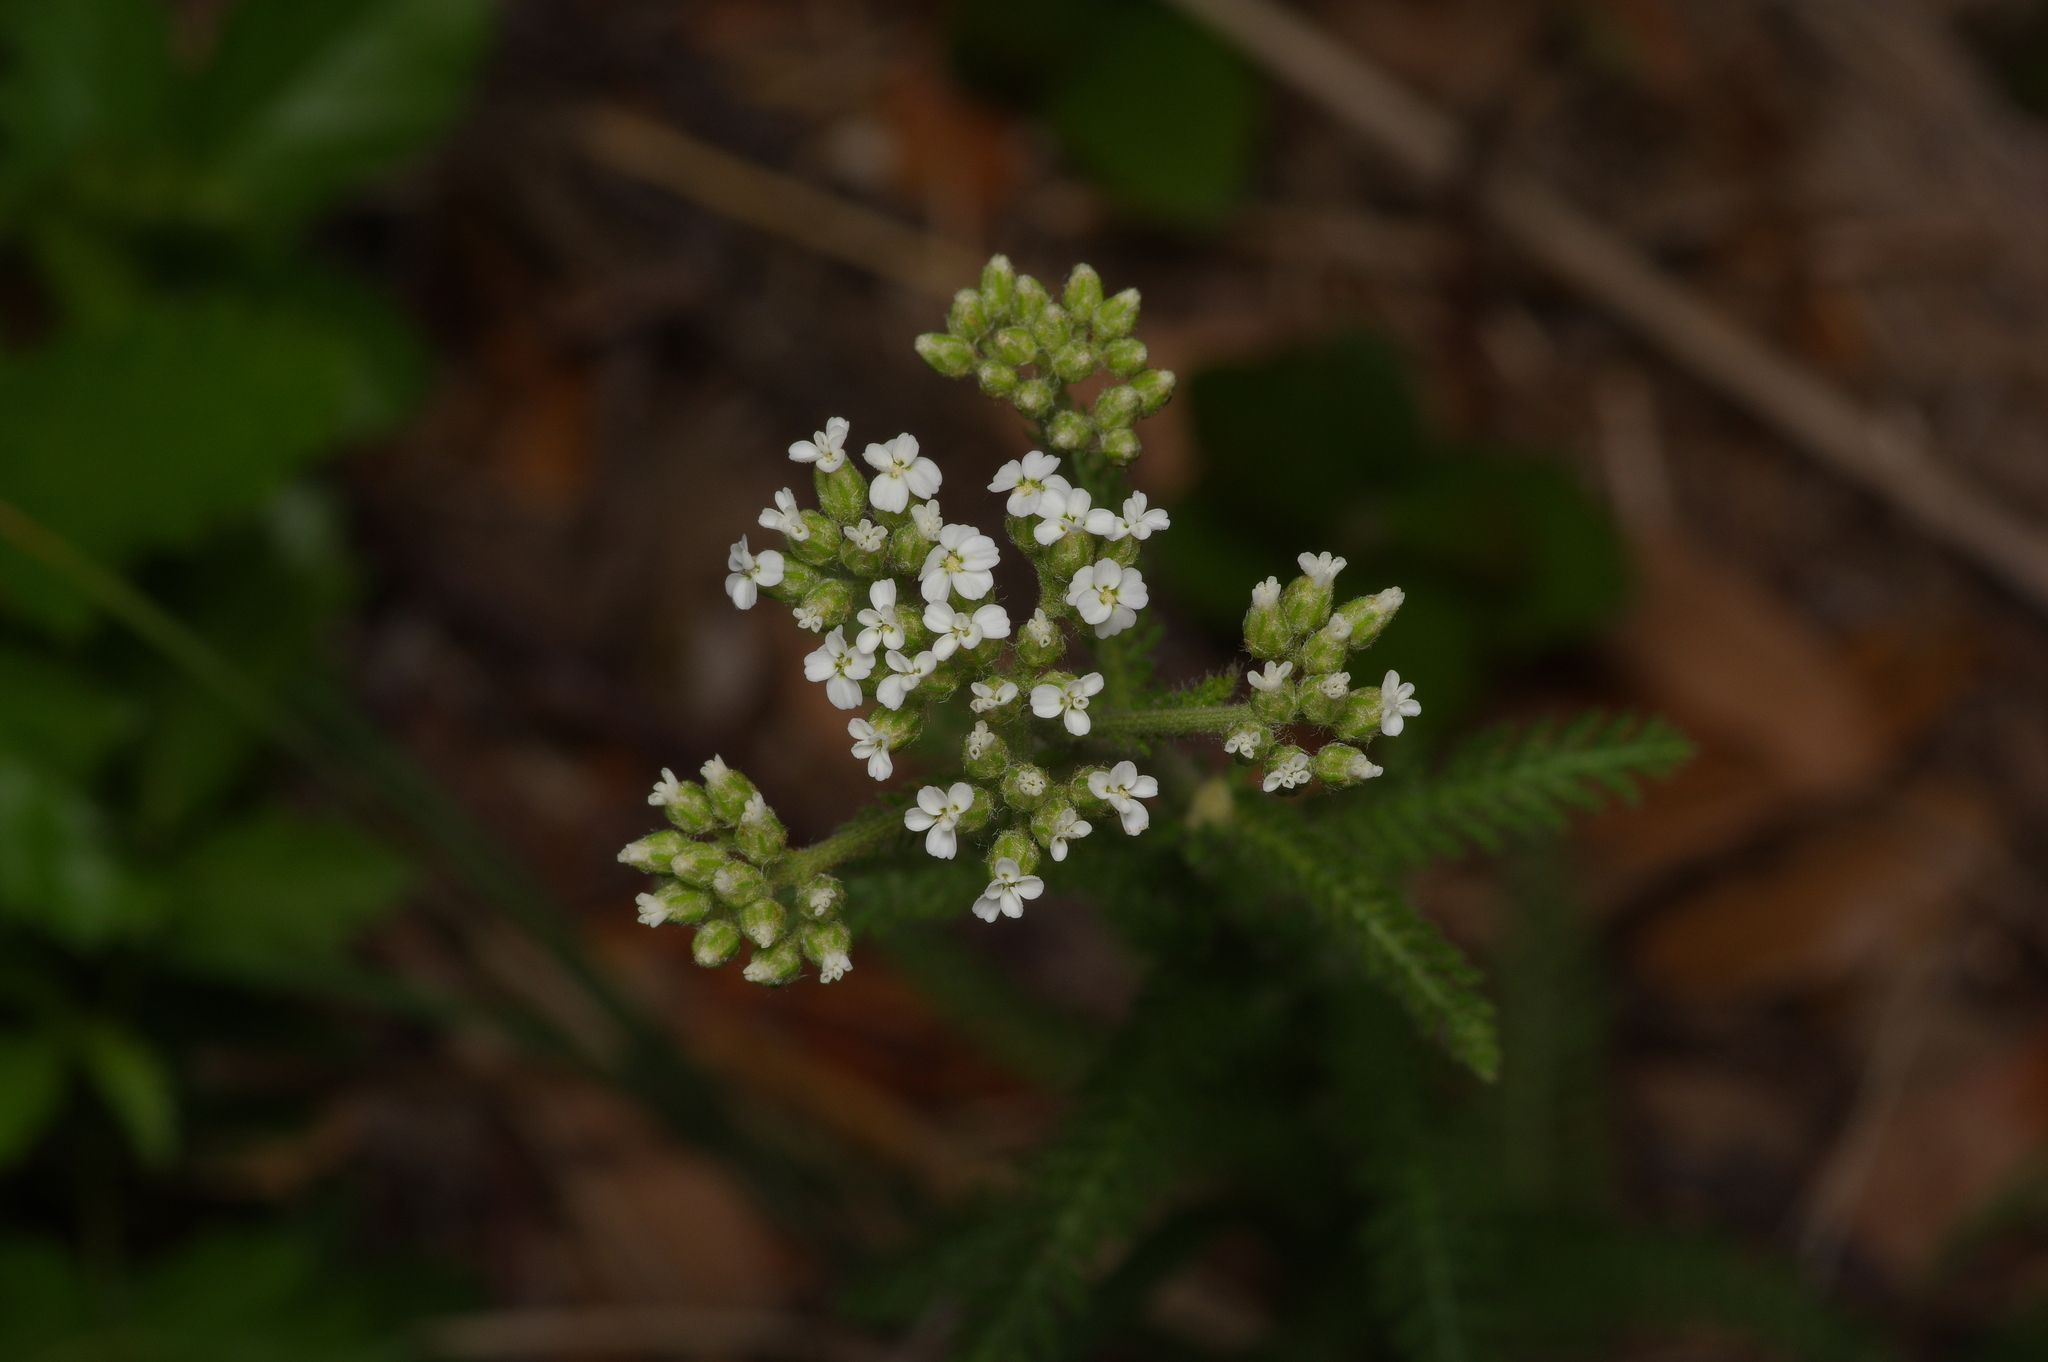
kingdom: Plantae
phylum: Tracheophyta
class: Magnoliopsida
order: Asterales
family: Asteraceae
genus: Achillea
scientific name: Achillea millefolium
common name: Yarrow
